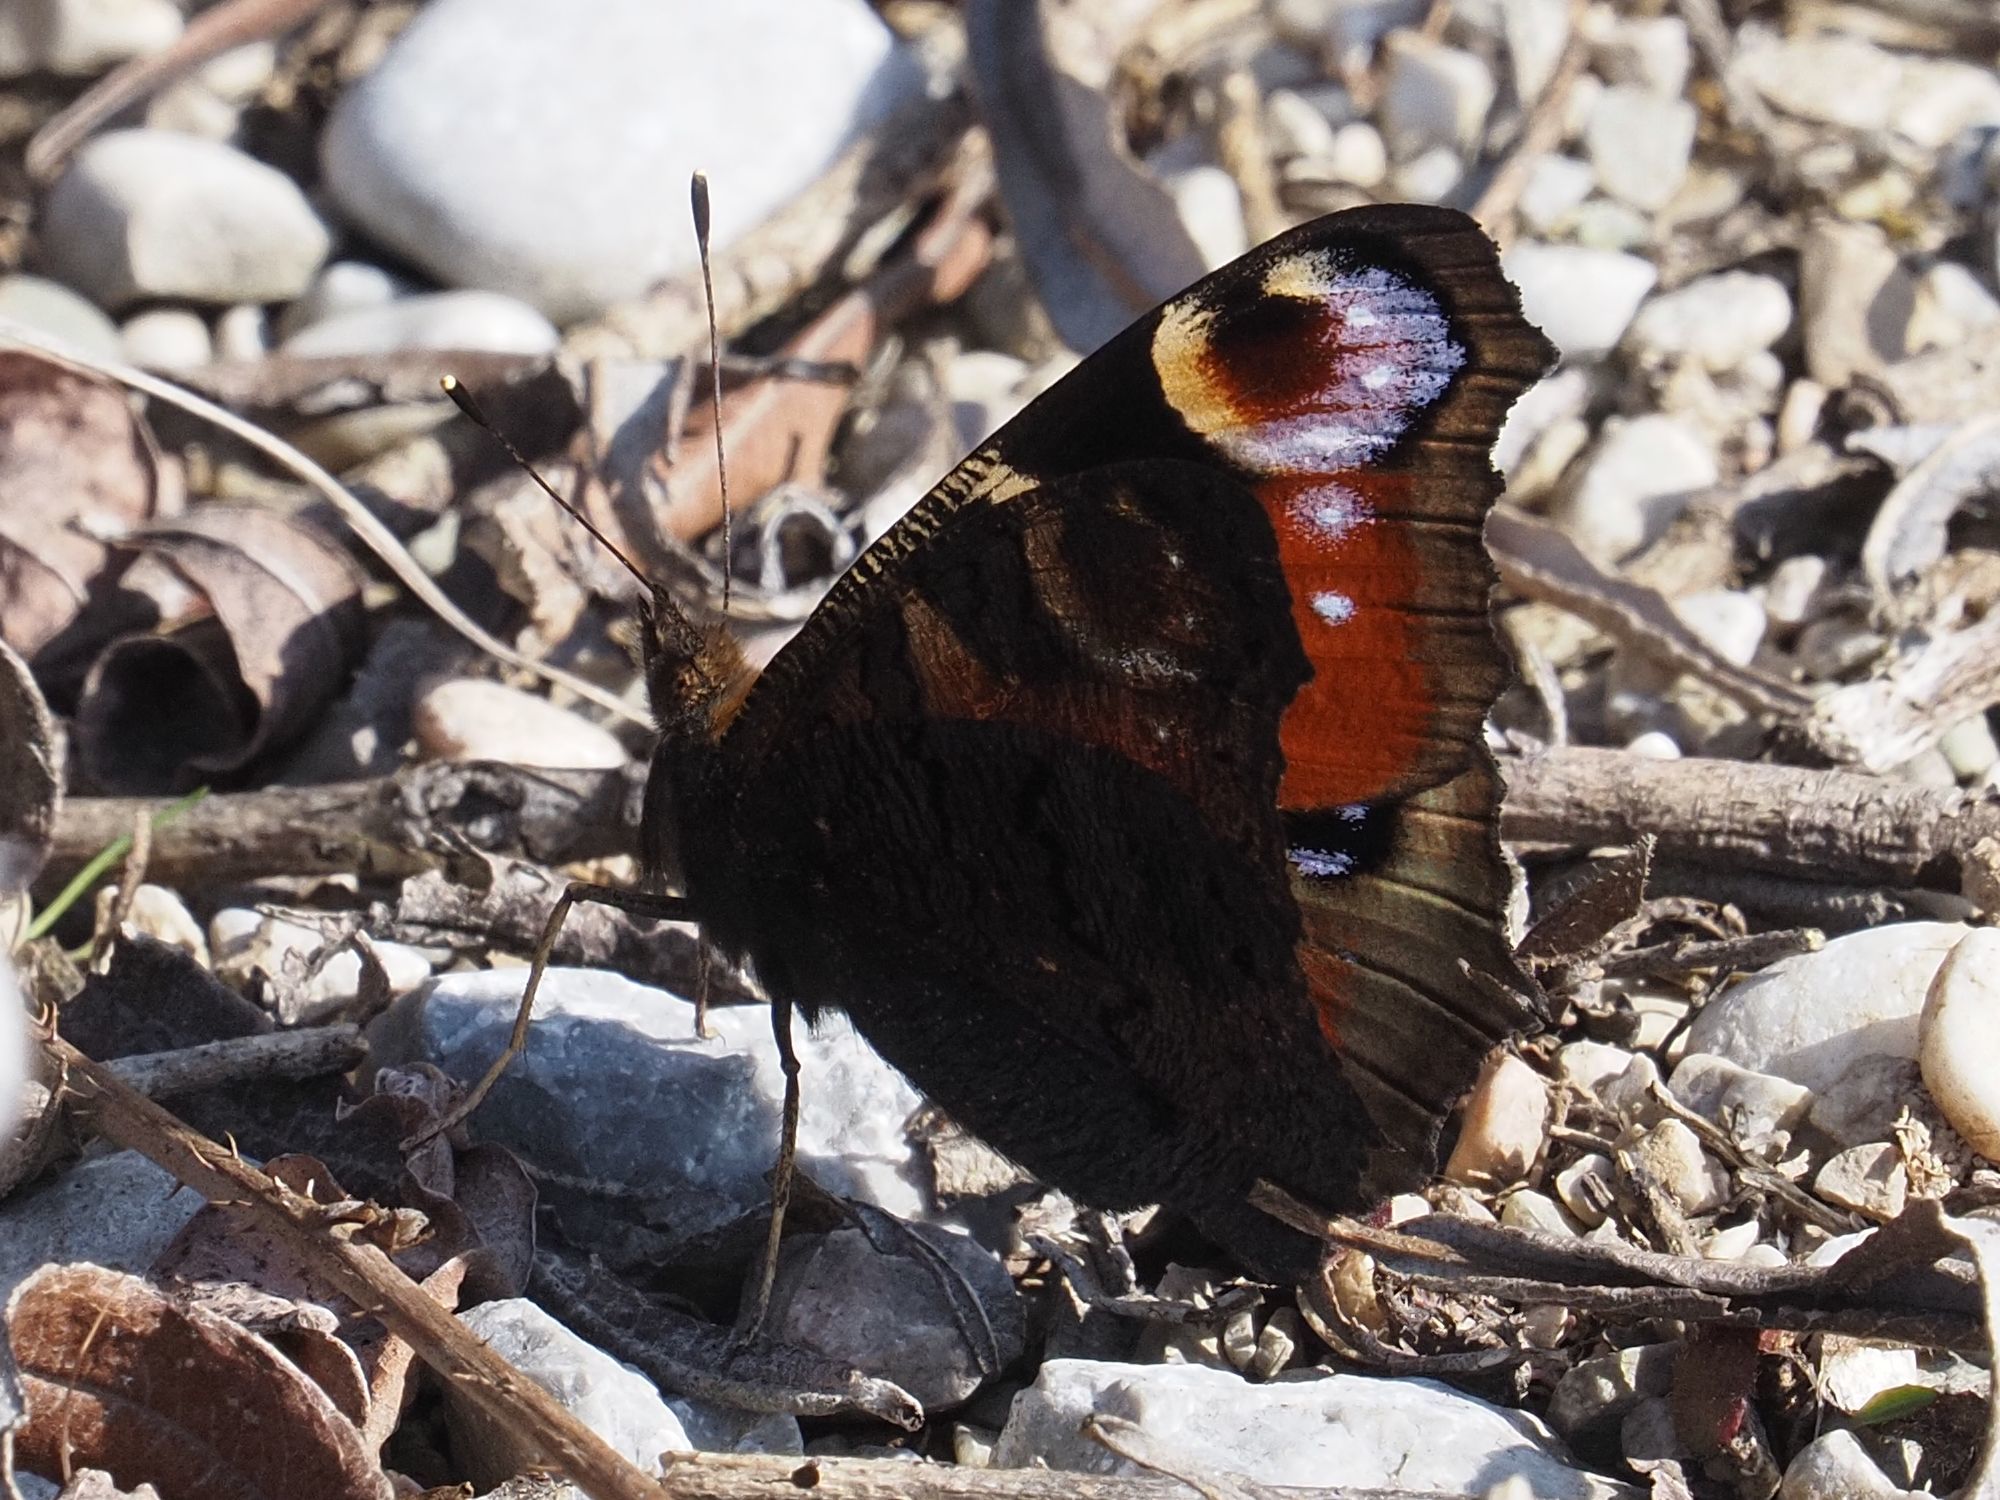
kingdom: Animalia
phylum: Arthropoda
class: Insecta
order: Lepidoptera
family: Nymphalidae
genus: Aglais
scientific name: Aglais io
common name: Peacock
